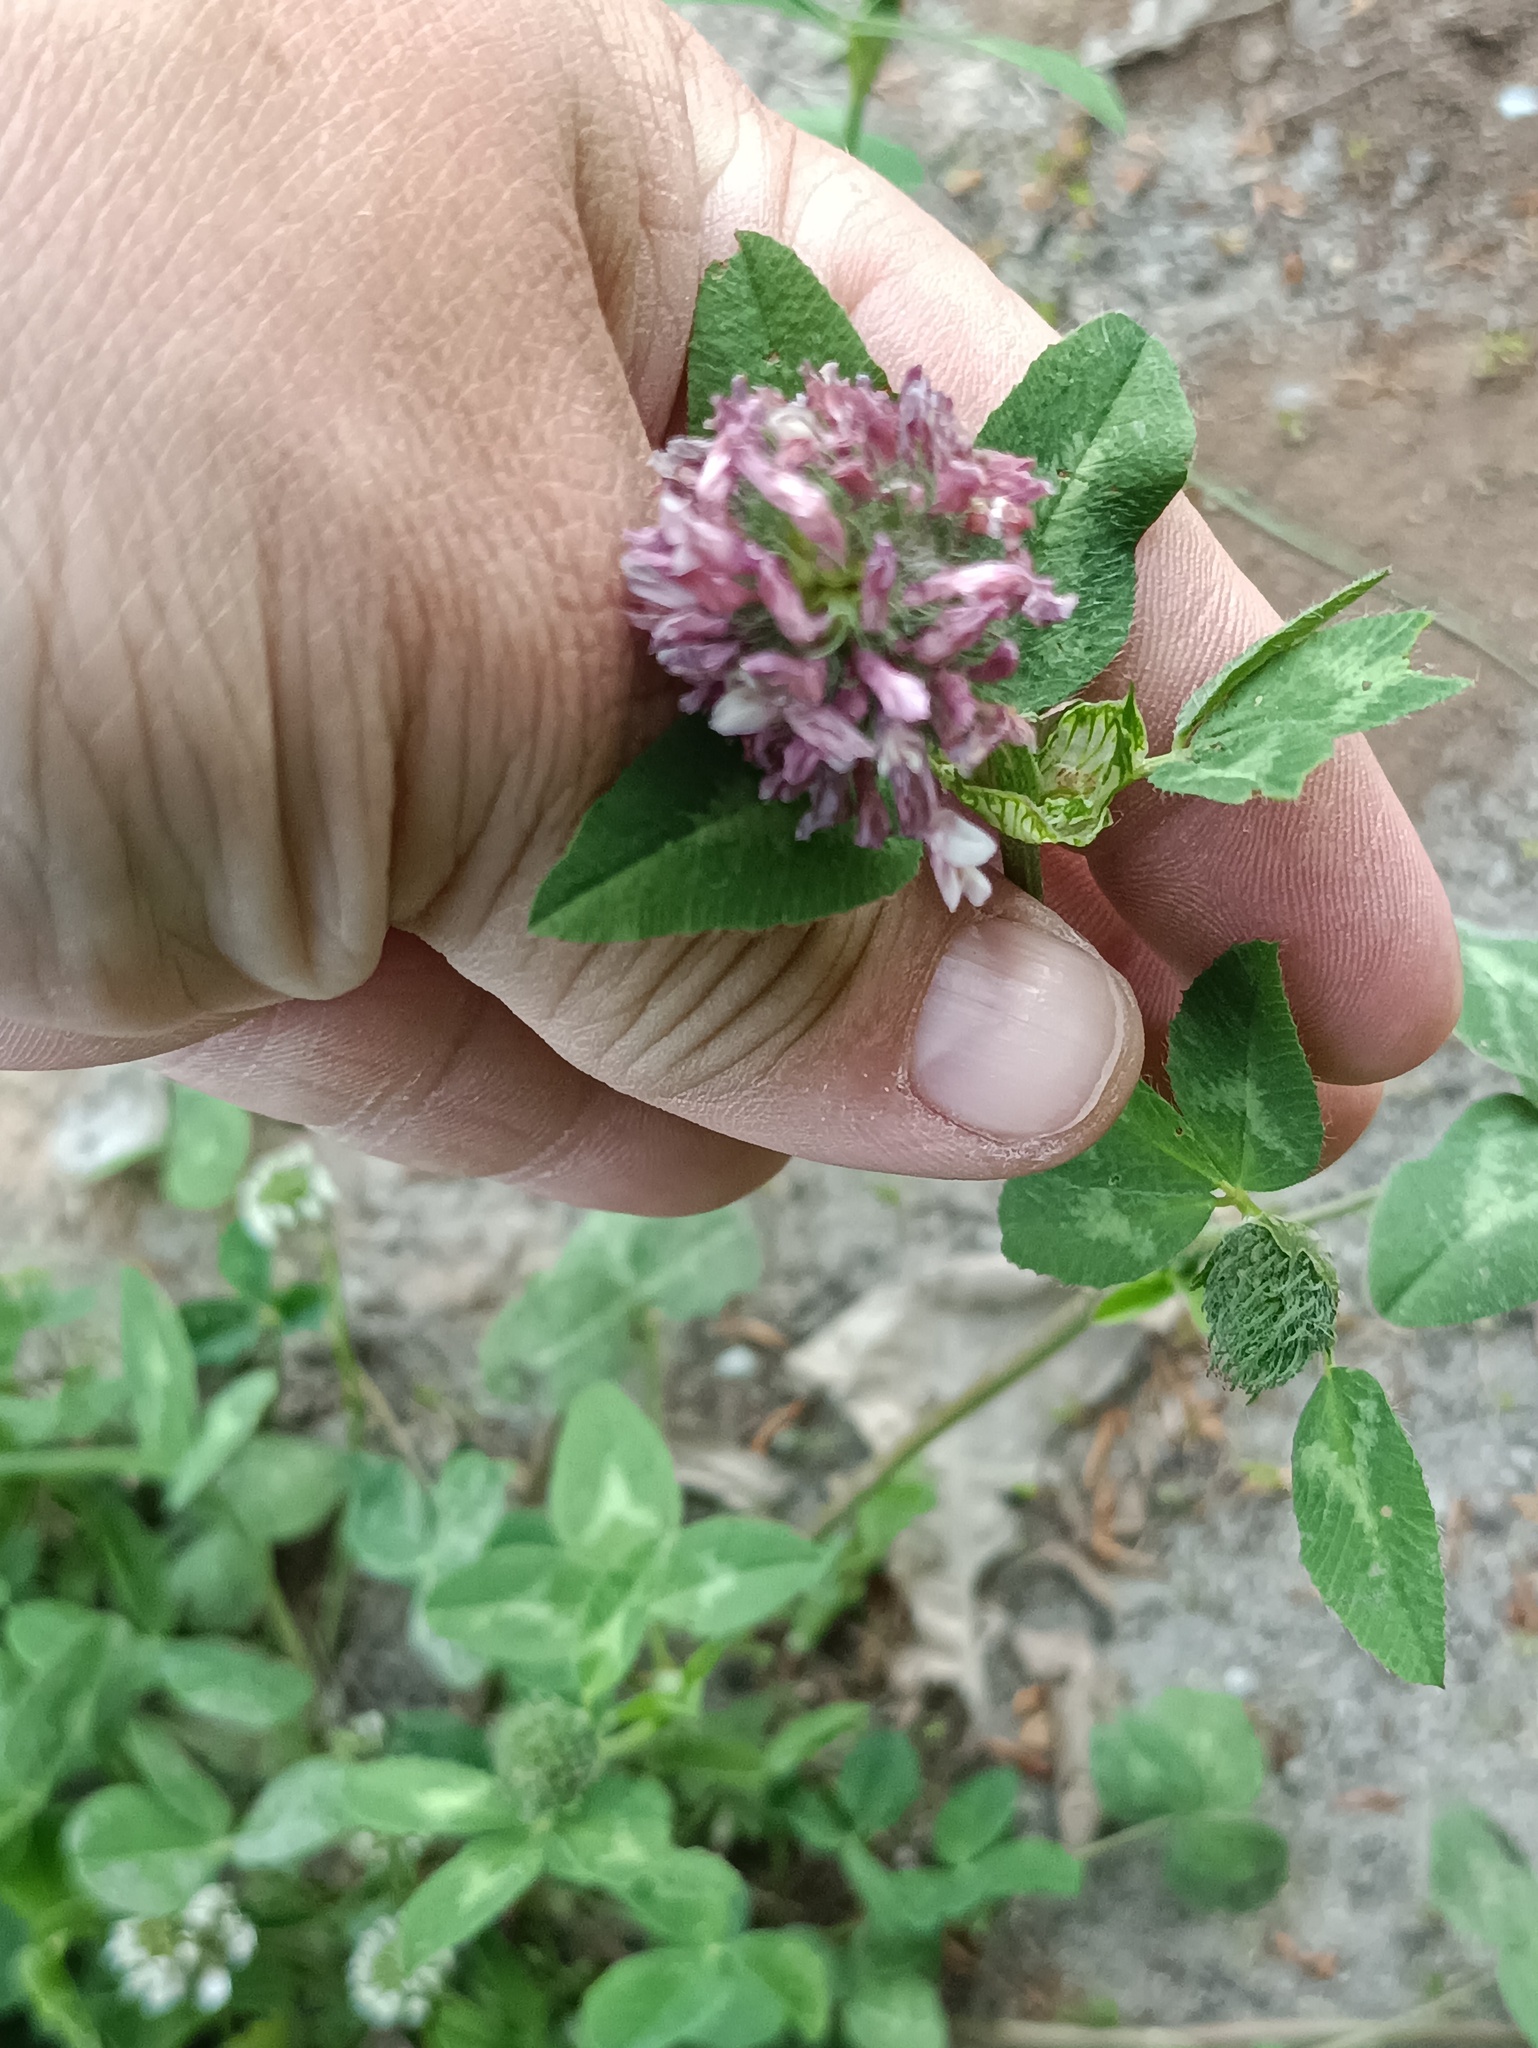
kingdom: Plantae
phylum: Tracheophyta
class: Magnoliopsida
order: Fabales
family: Fabaceae
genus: Trifolium
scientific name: Trifolium pratense
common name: Red clover
